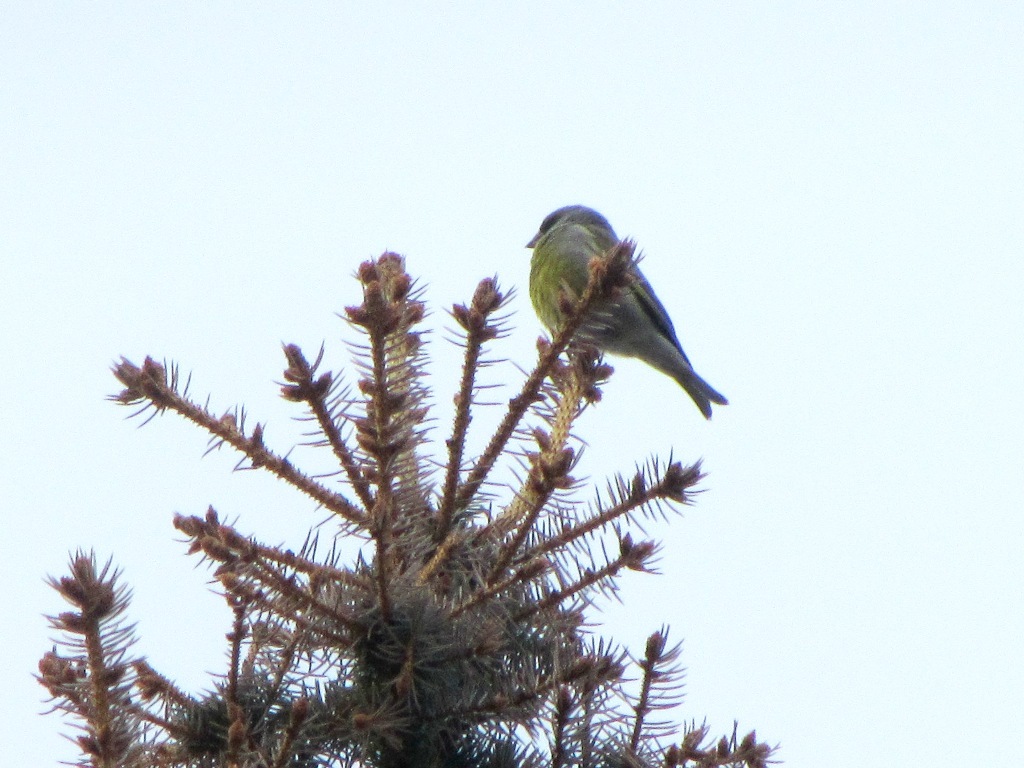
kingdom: Plantae
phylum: Tracheophyta
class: Liliopsida
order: Poales
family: Poaceae
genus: Chloris
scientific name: Chloris chloris
